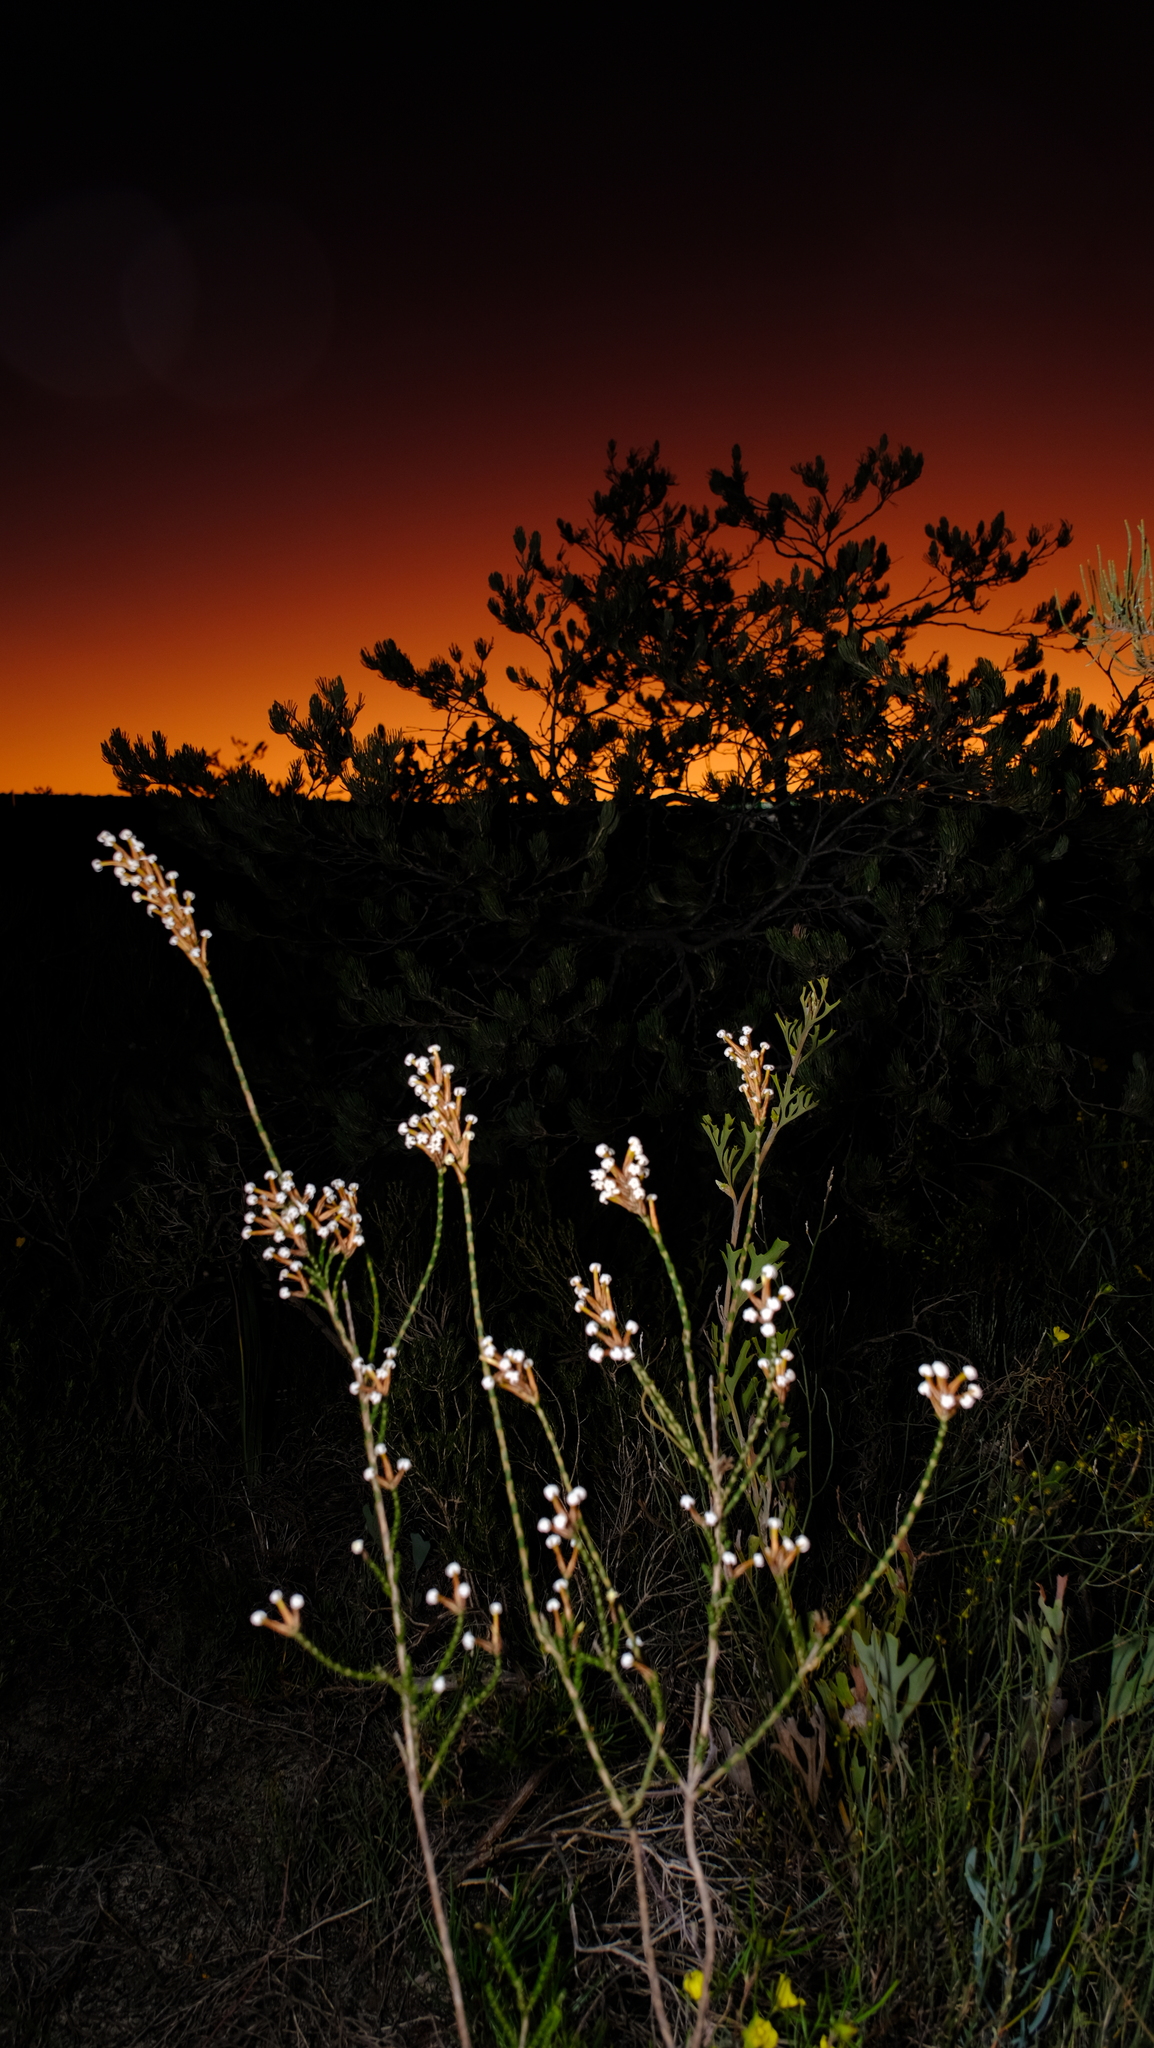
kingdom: Plantae
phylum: Tracheophyta
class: Magnoliopsida
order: Ericales
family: Ericaceae
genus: Lysinema
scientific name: Lysinema pentapetalum
